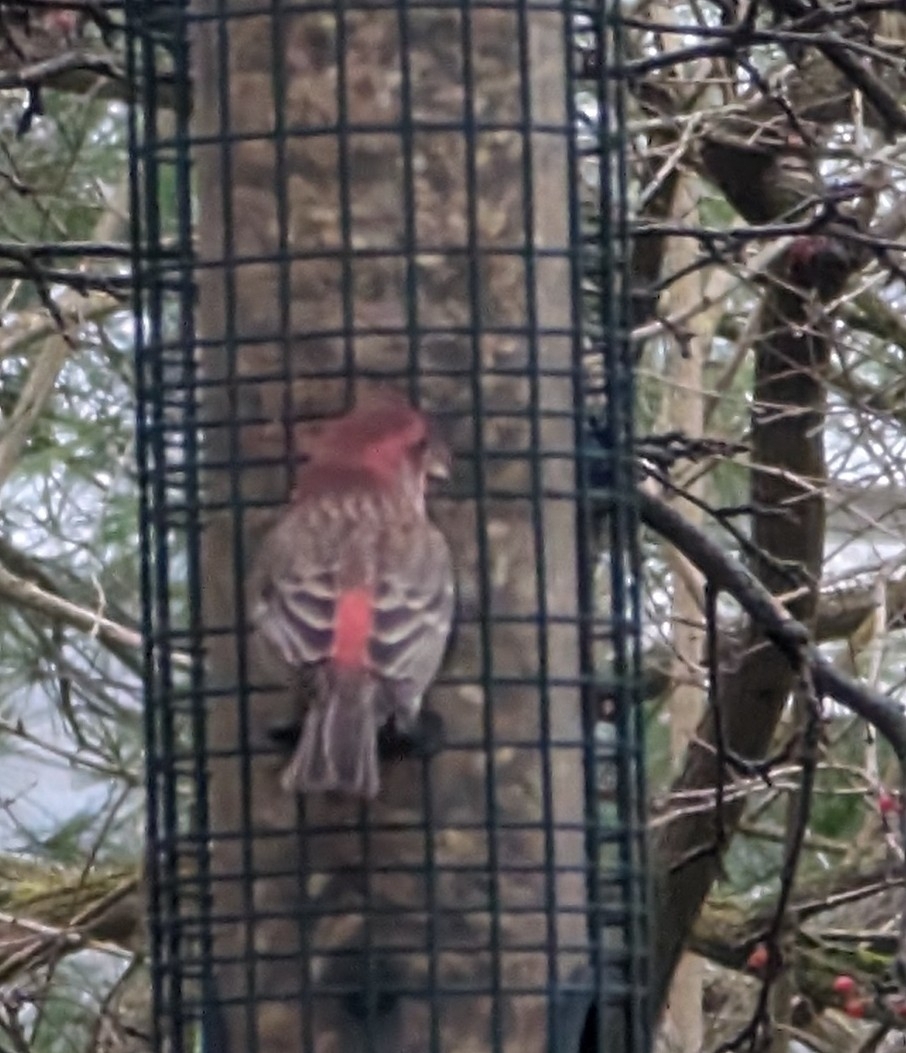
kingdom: Animalia
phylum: Chordata
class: Aves
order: Passeriformes
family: Fringillidae
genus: Haemorhous
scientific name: Haemorhous mexicanus
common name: House finch
